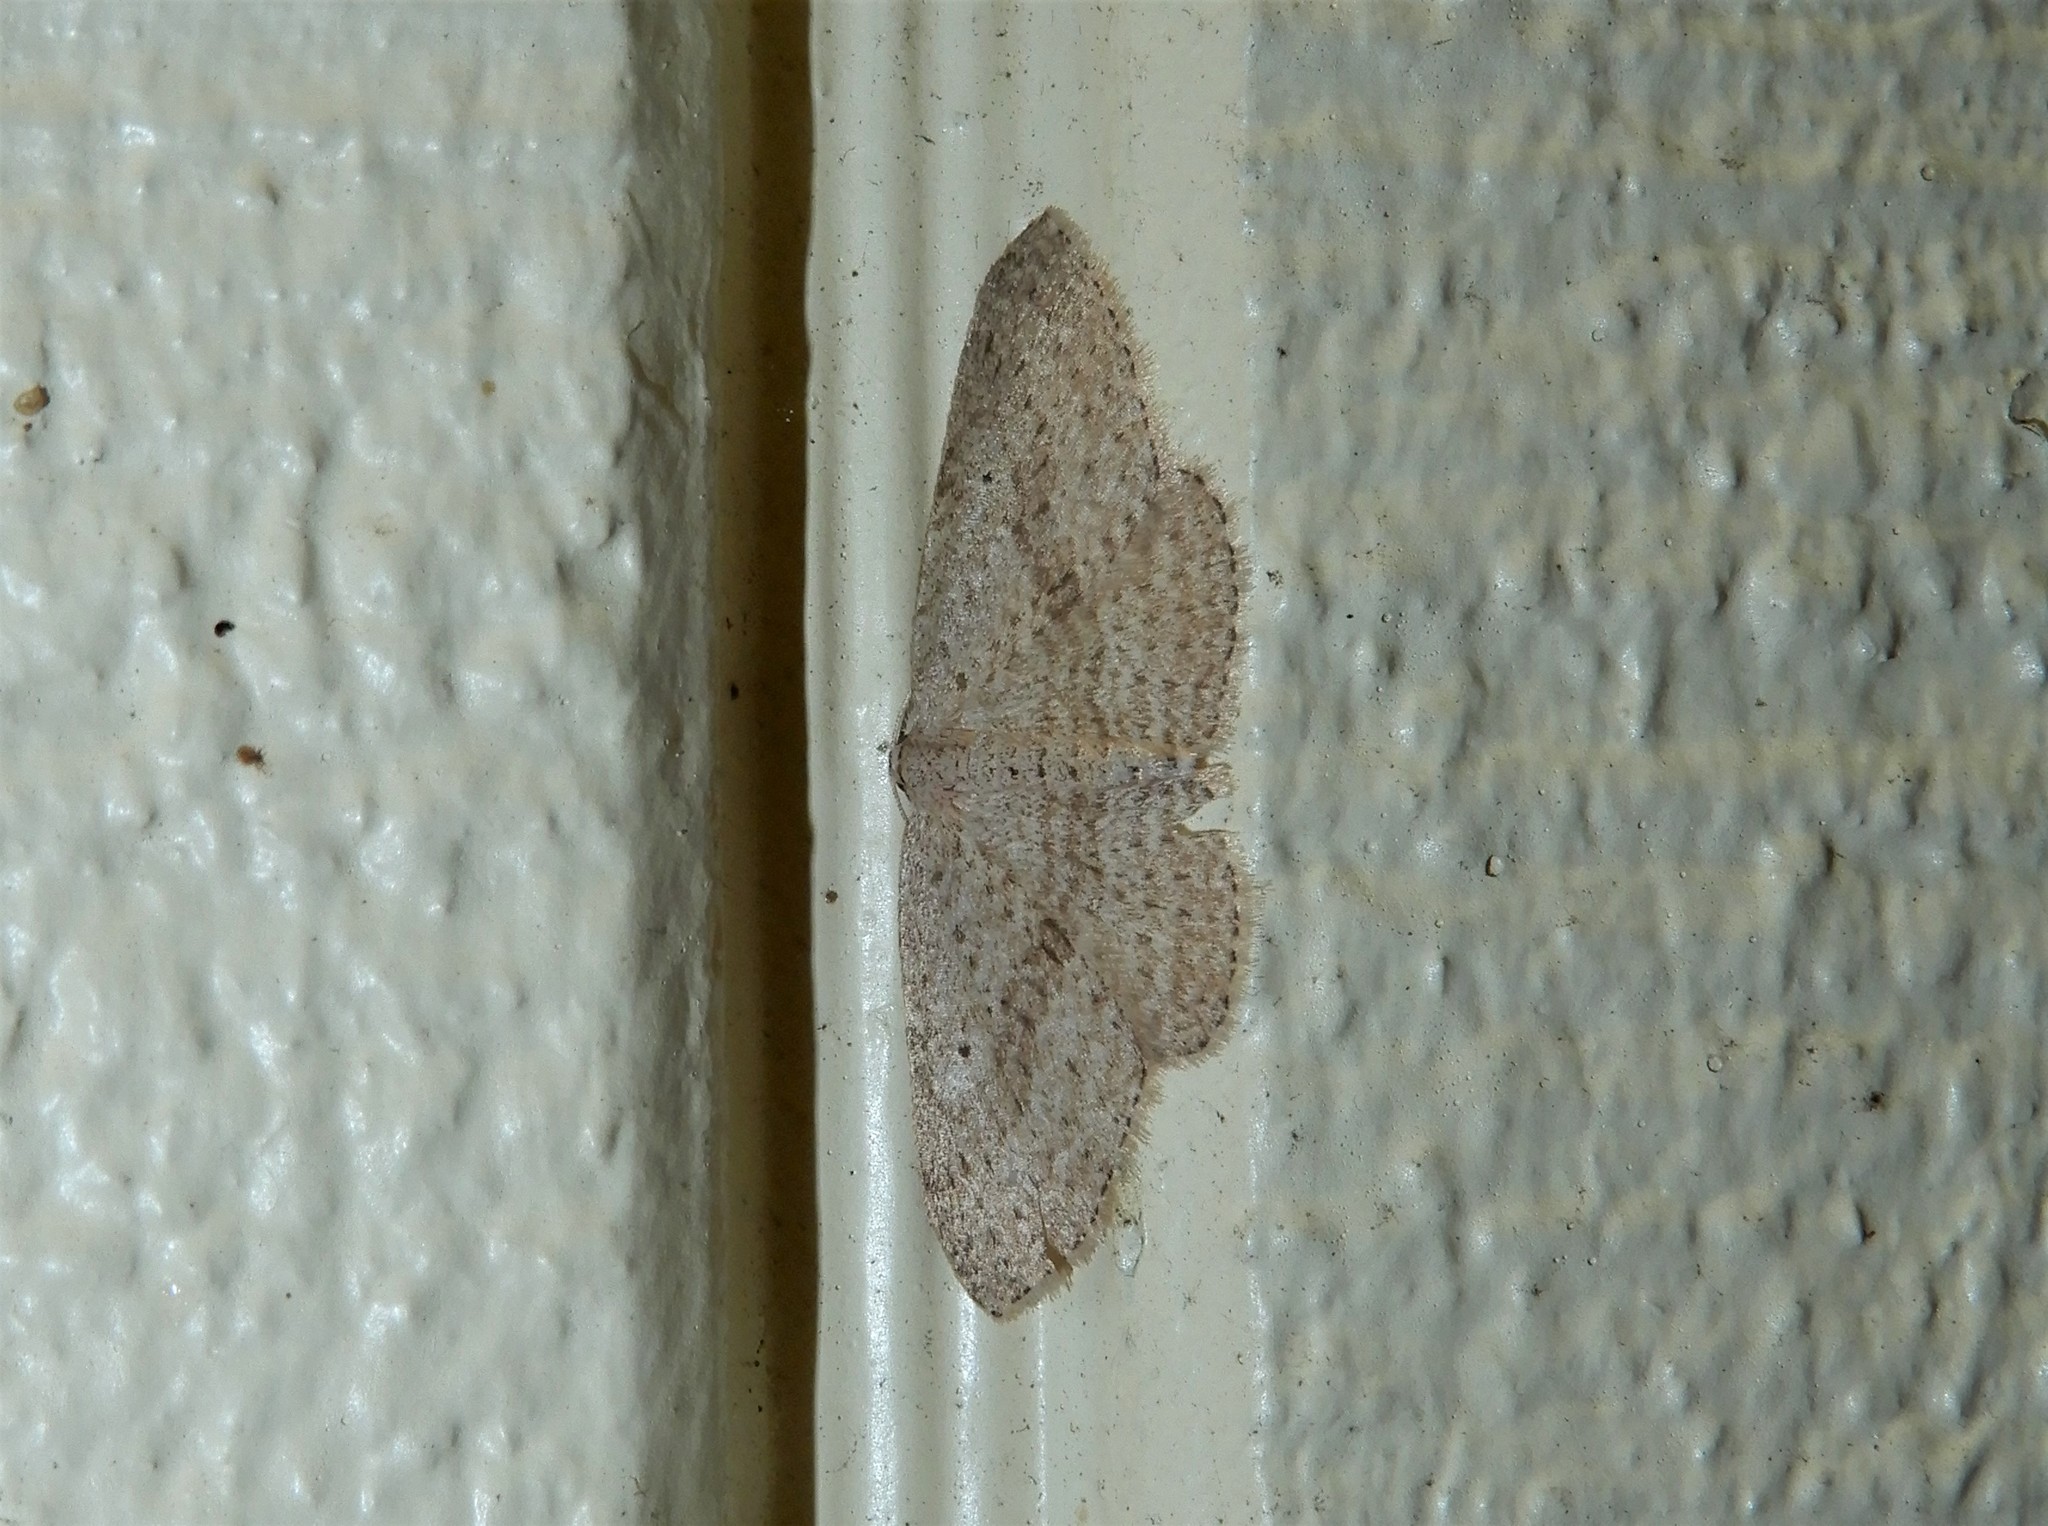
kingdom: Animalia
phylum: Arthropoda
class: Insecta
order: Lepidoptera
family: Geometridae
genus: Poecilasthena
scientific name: Poecilasthena schistaria
